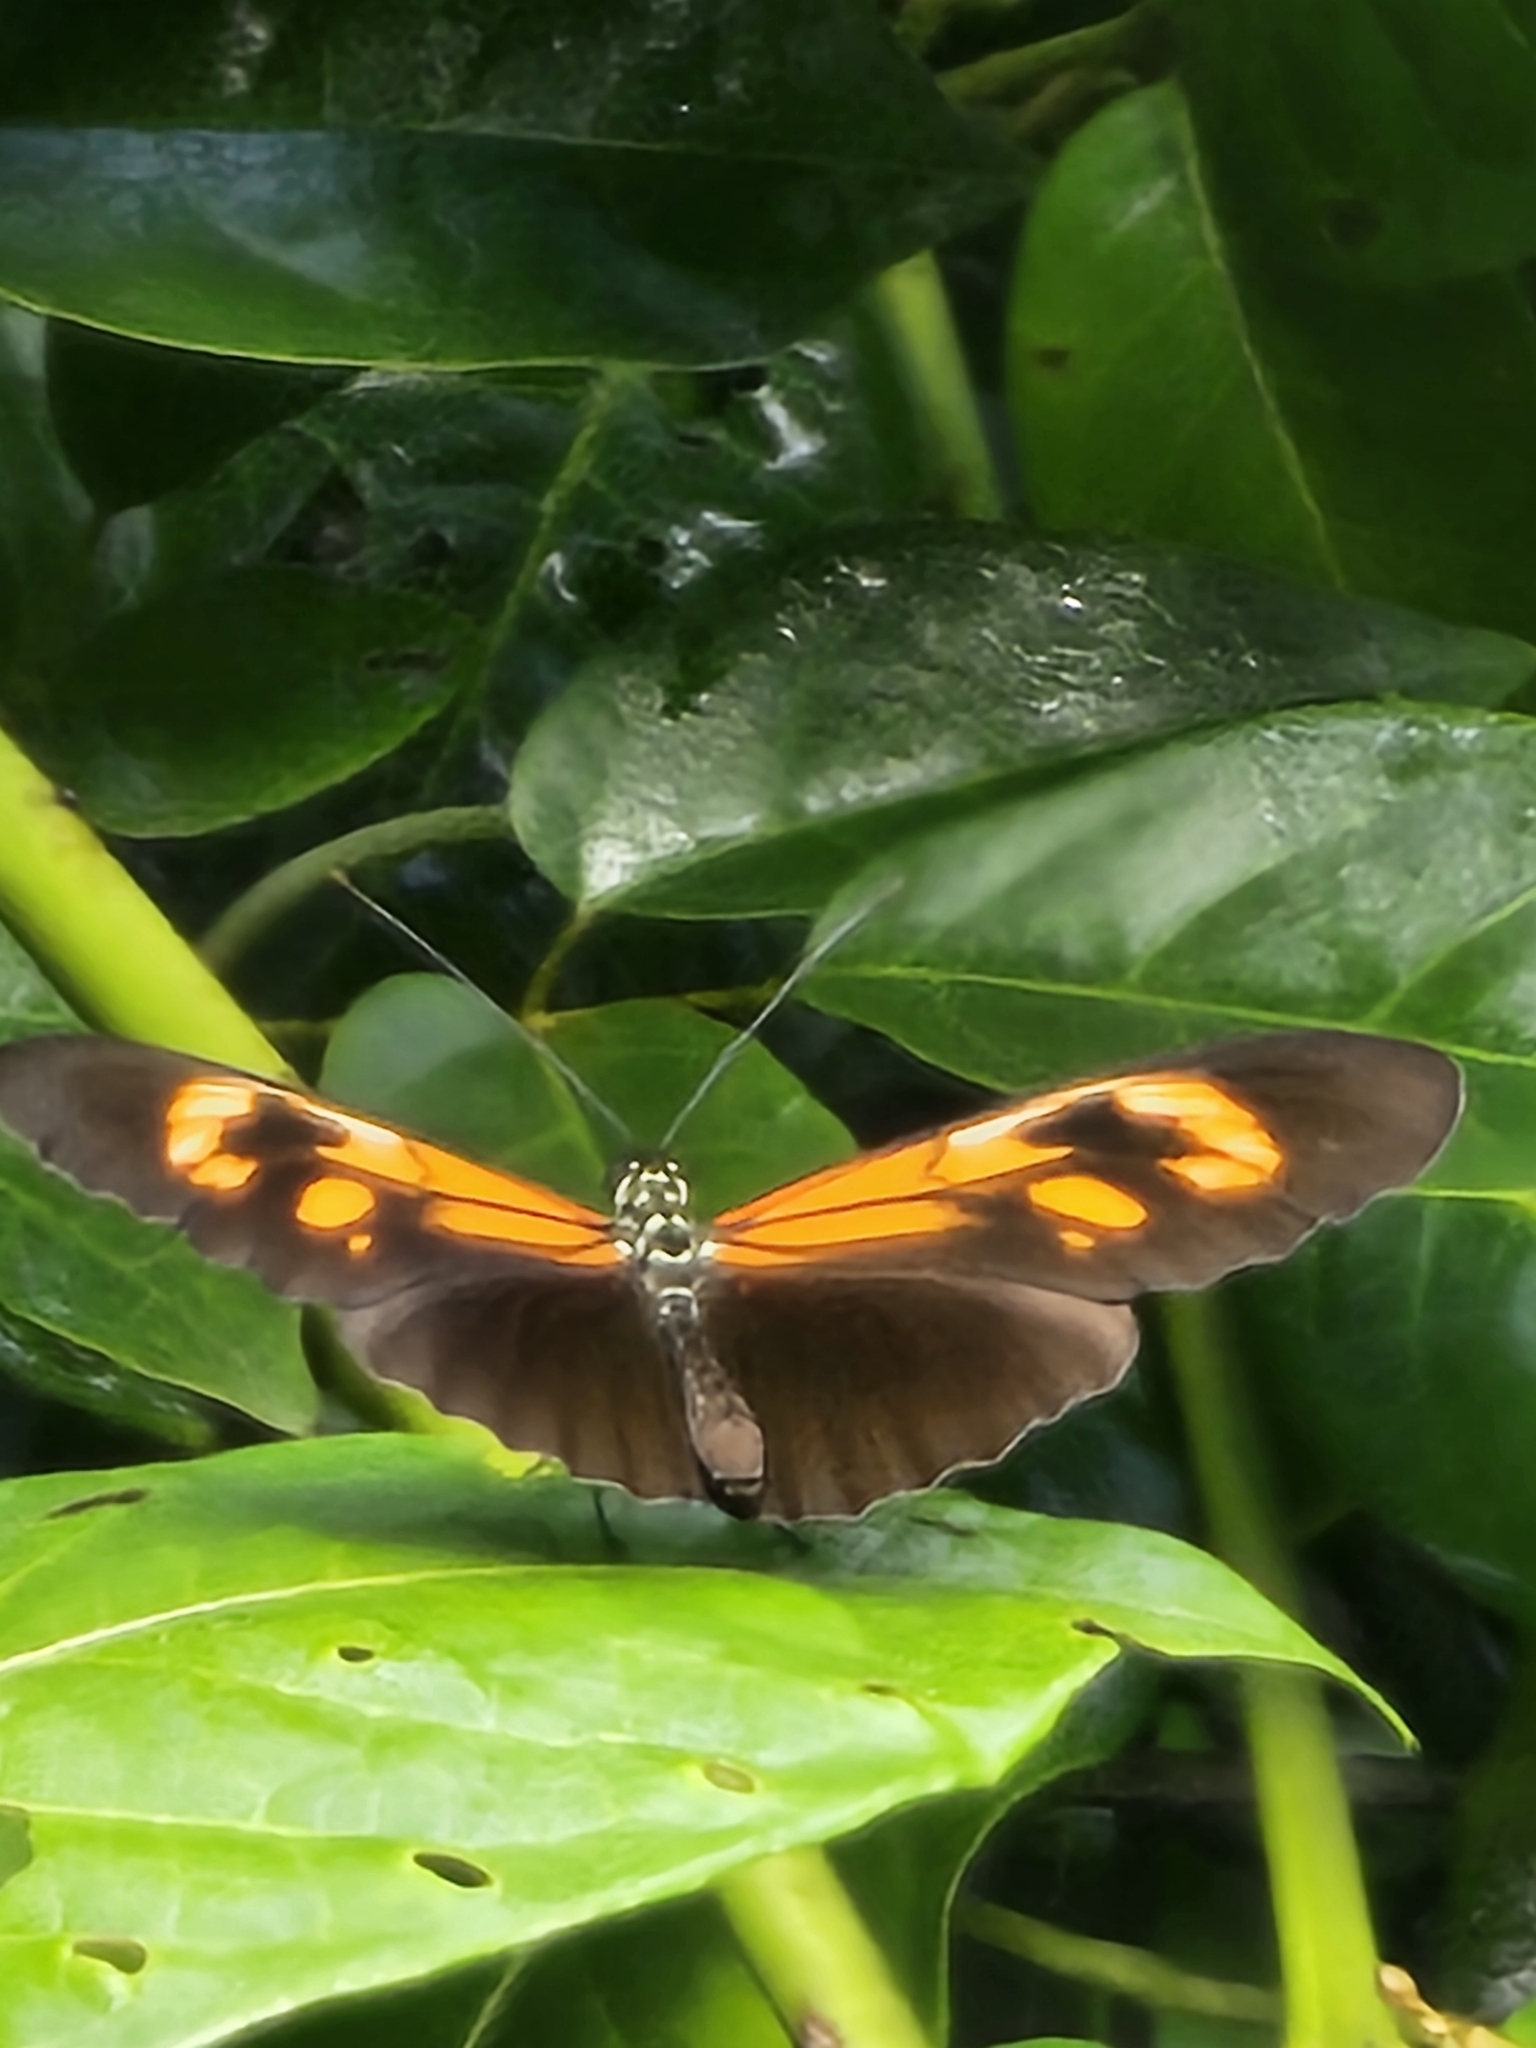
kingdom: Animalia
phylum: Arthropoda
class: Insecta
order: Lepidoptera
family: Nymphalidae
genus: Heliconius
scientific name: Heliconius erato
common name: Common patch longwing
